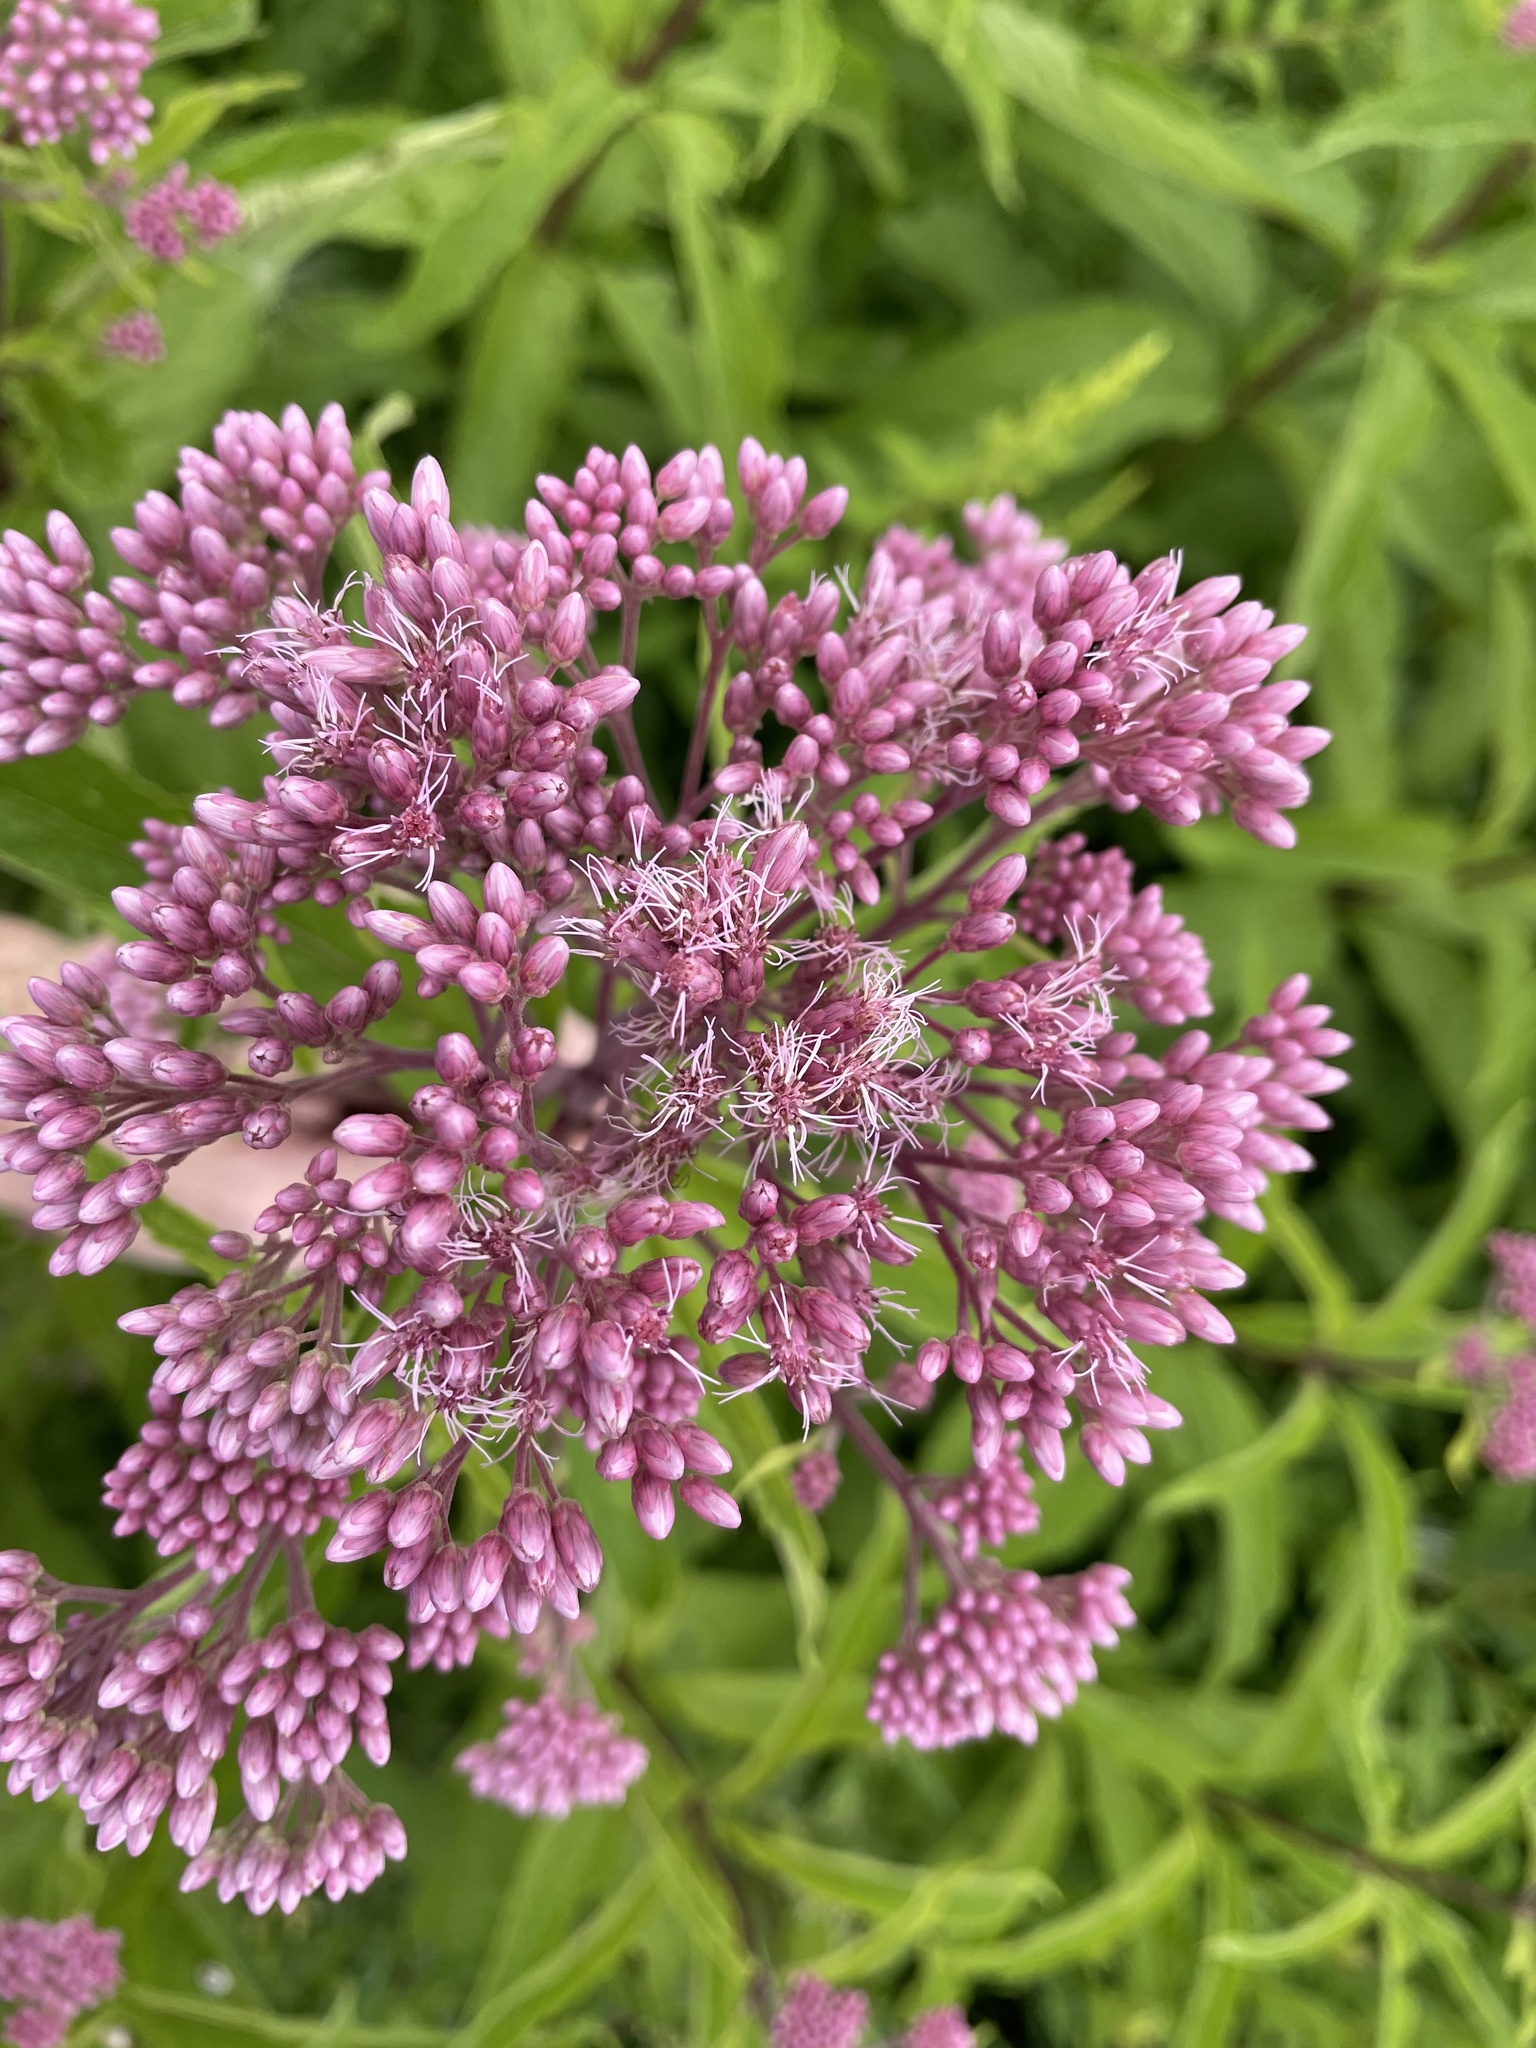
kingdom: Plantae
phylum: Tracheophyta
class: Magnoliopsida
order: Asterales
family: Asteraceae
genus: Eutrochium
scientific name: Eutrochium maculatum
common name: Spotted joe pye weed
